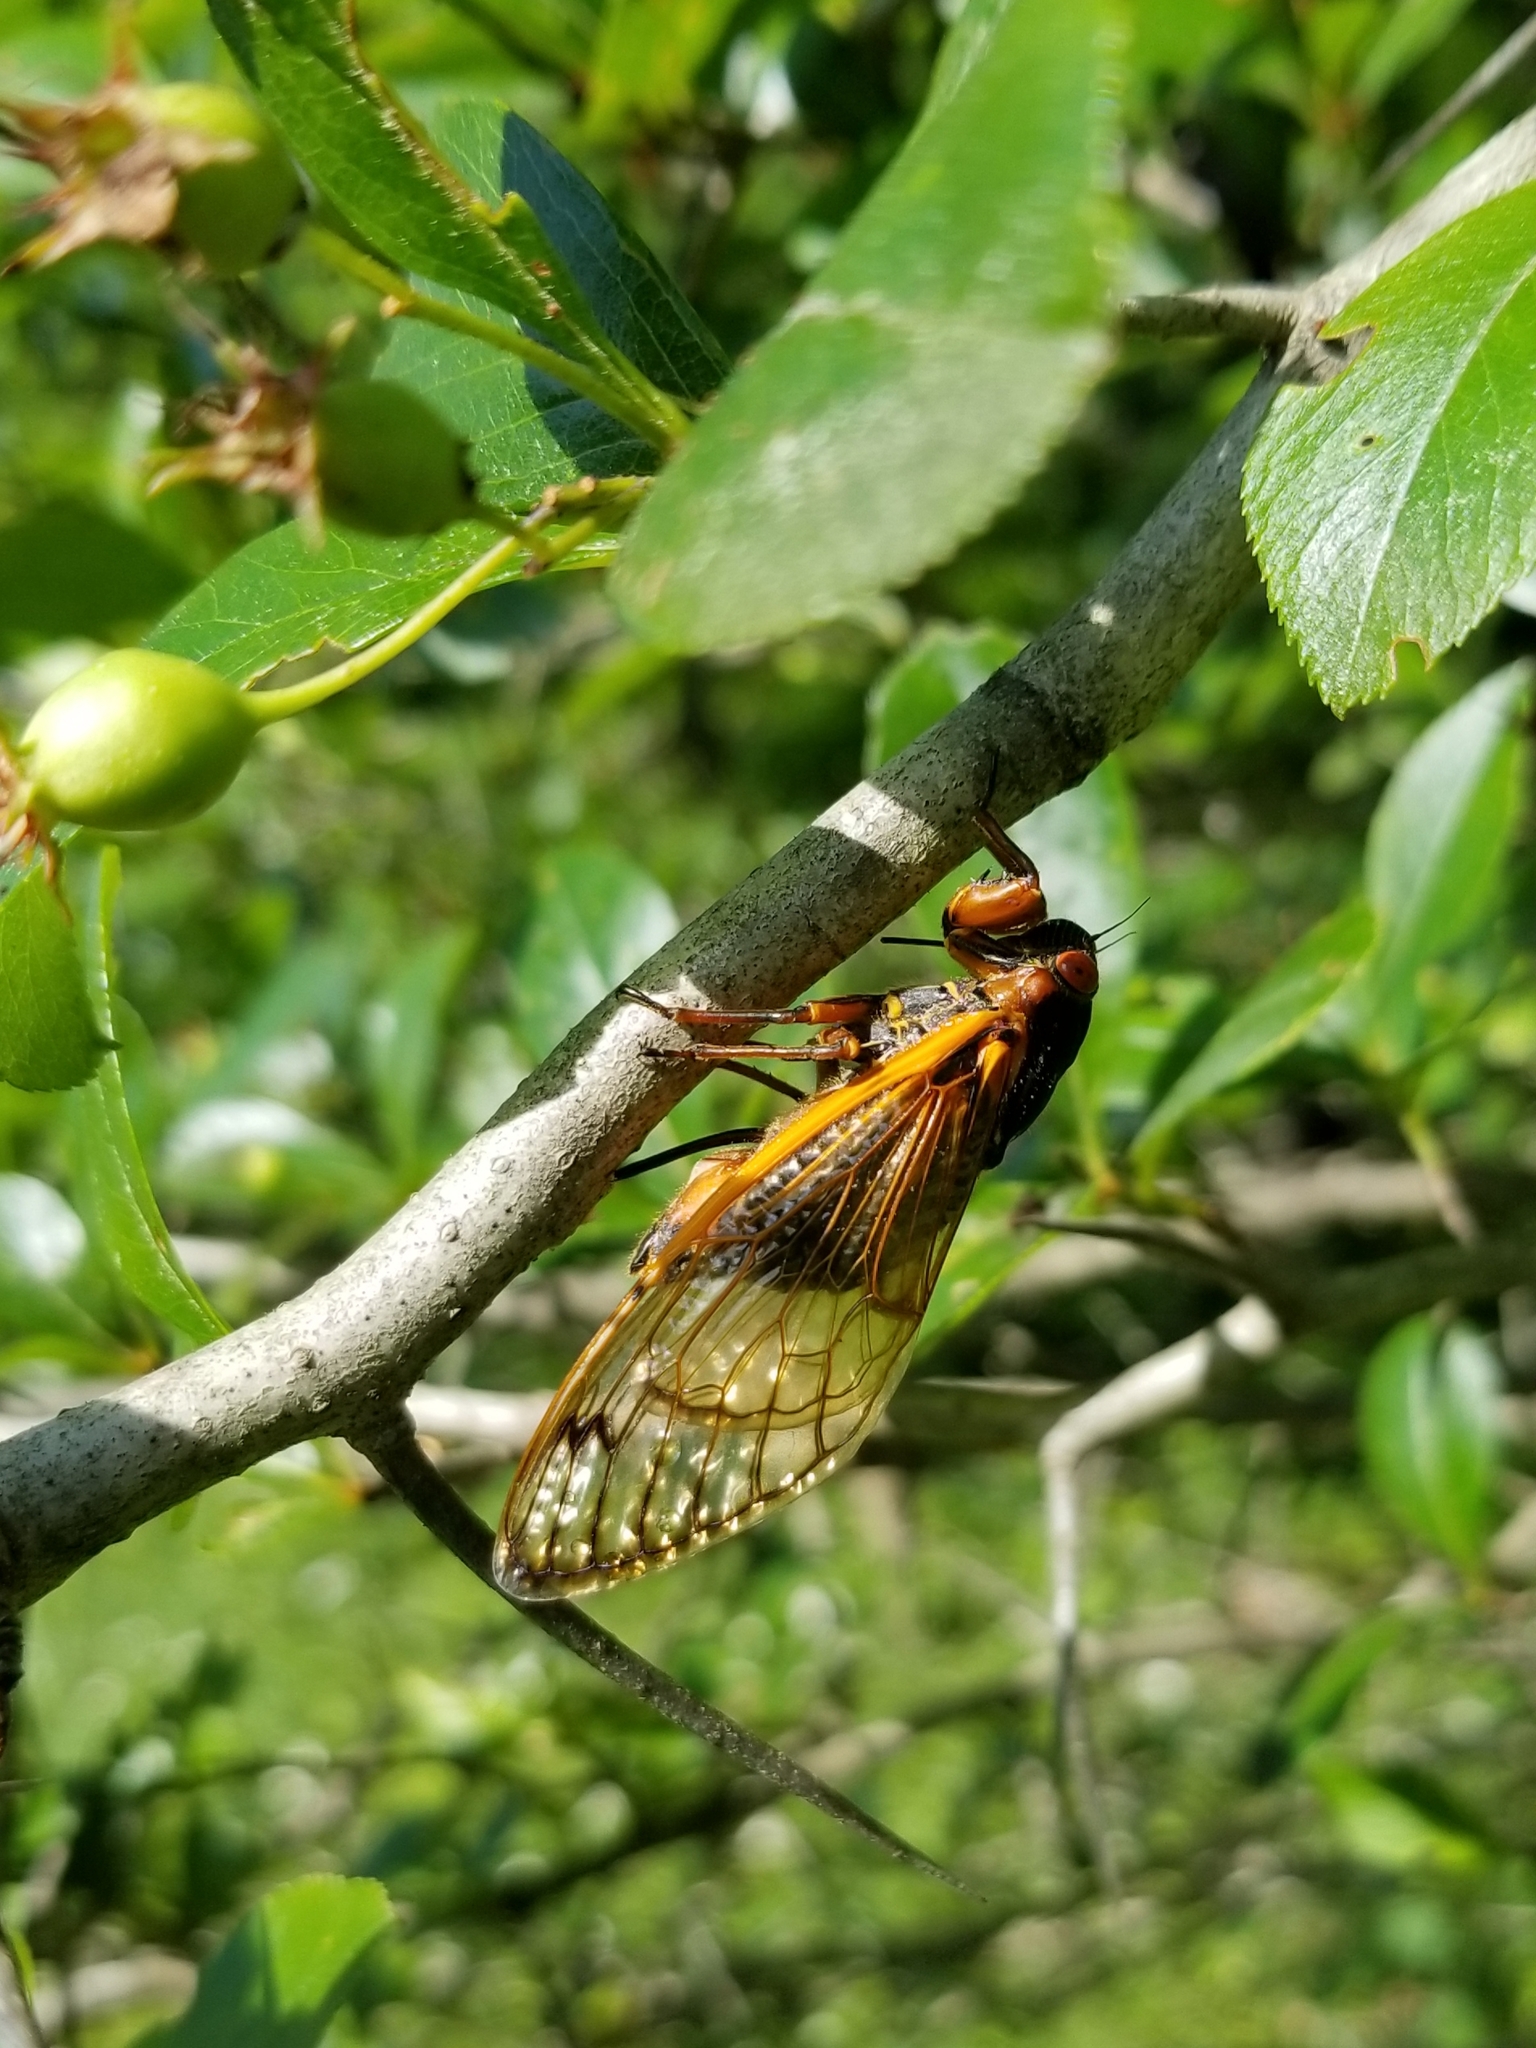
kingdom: Animalia
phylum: Arthropoda
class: Insecta
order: Hemiptera
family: Cicadidae
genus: Magicicada
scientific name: Magicicada septendecim
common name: Periodical cicada
